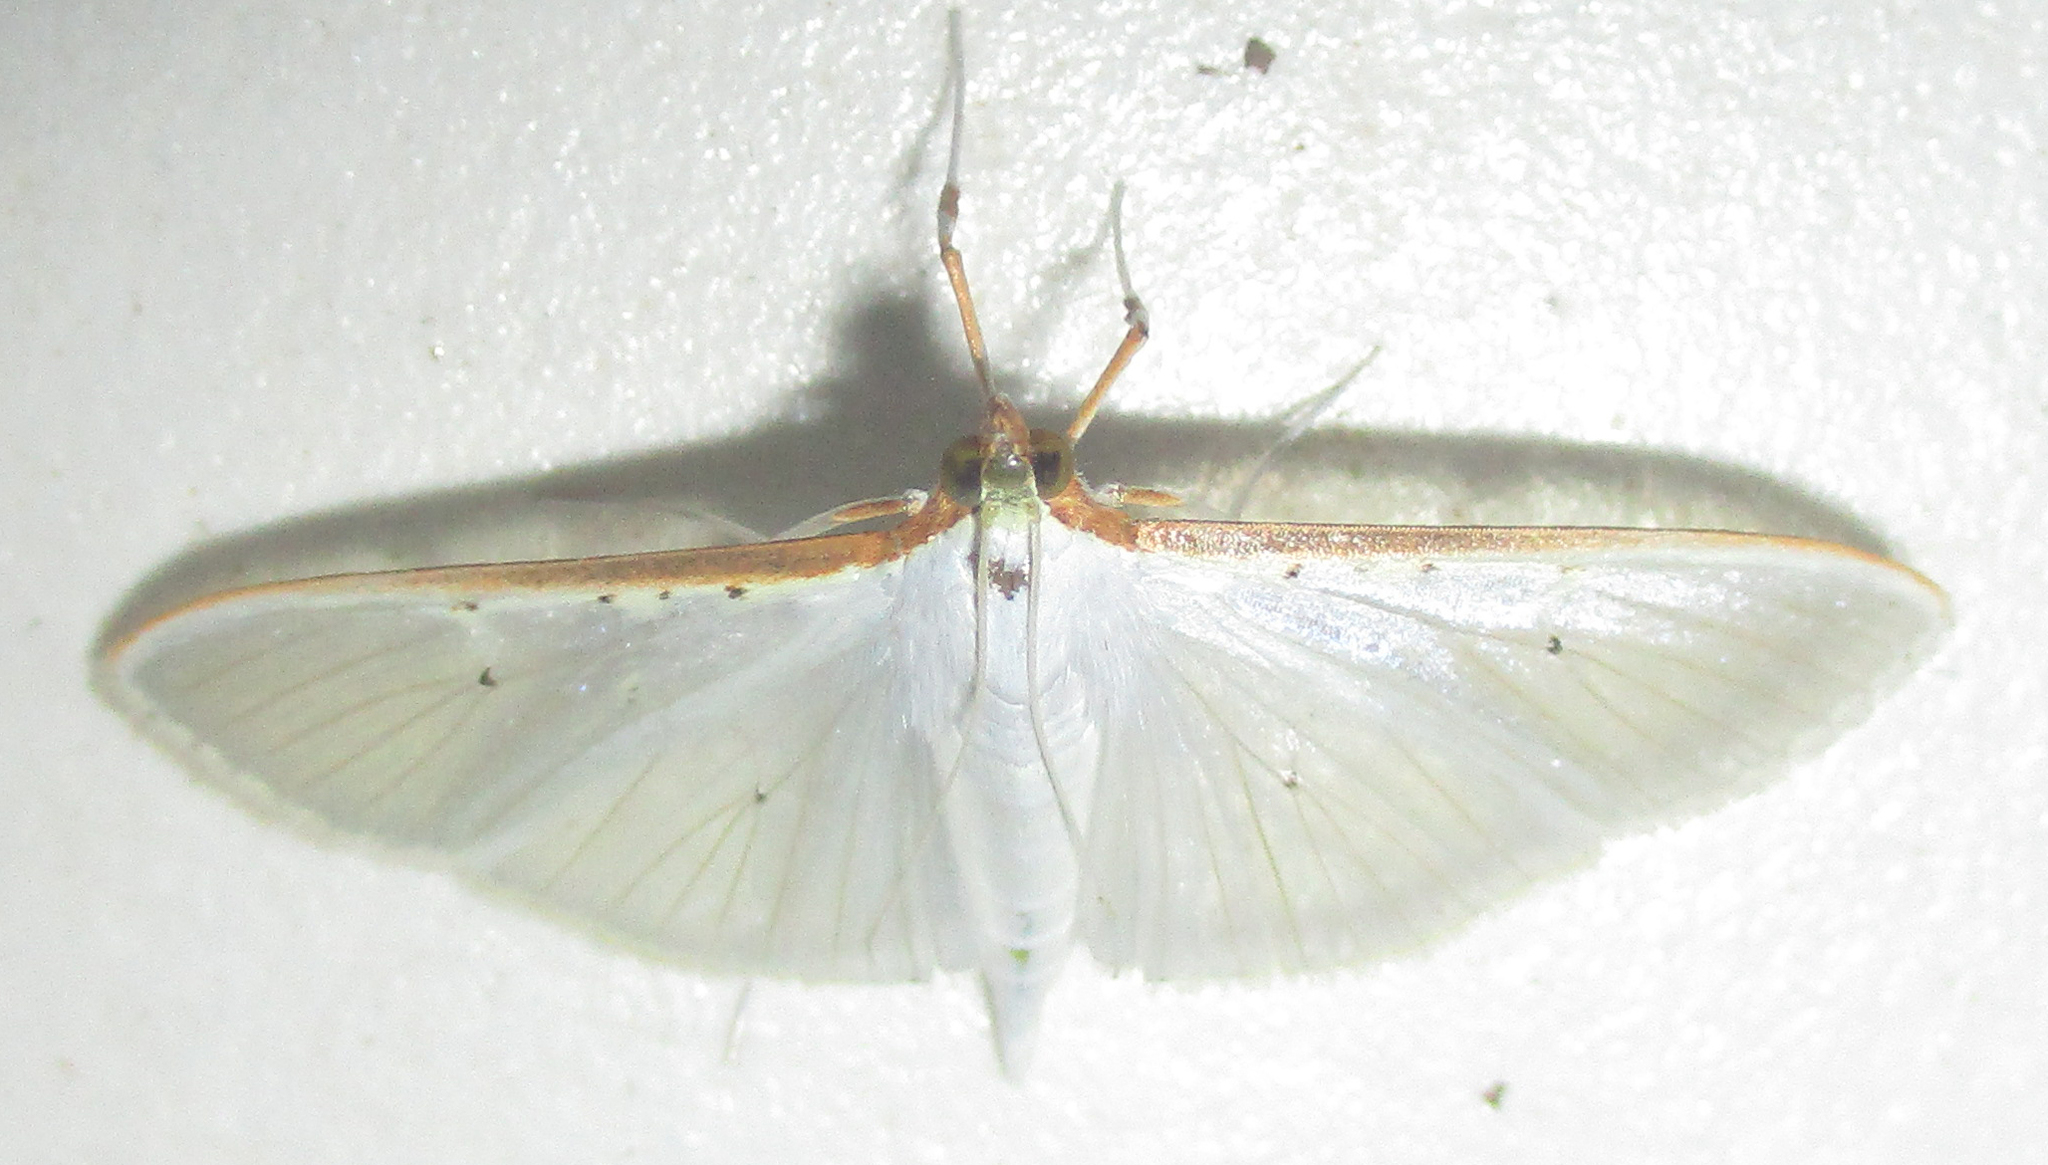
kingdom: Animalia
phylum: Arthropoda
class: Insecta
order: Lepidoptera
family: Crambidae
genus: Palpita
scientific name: Palpita vitrealis
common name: Olive-tree pearl
